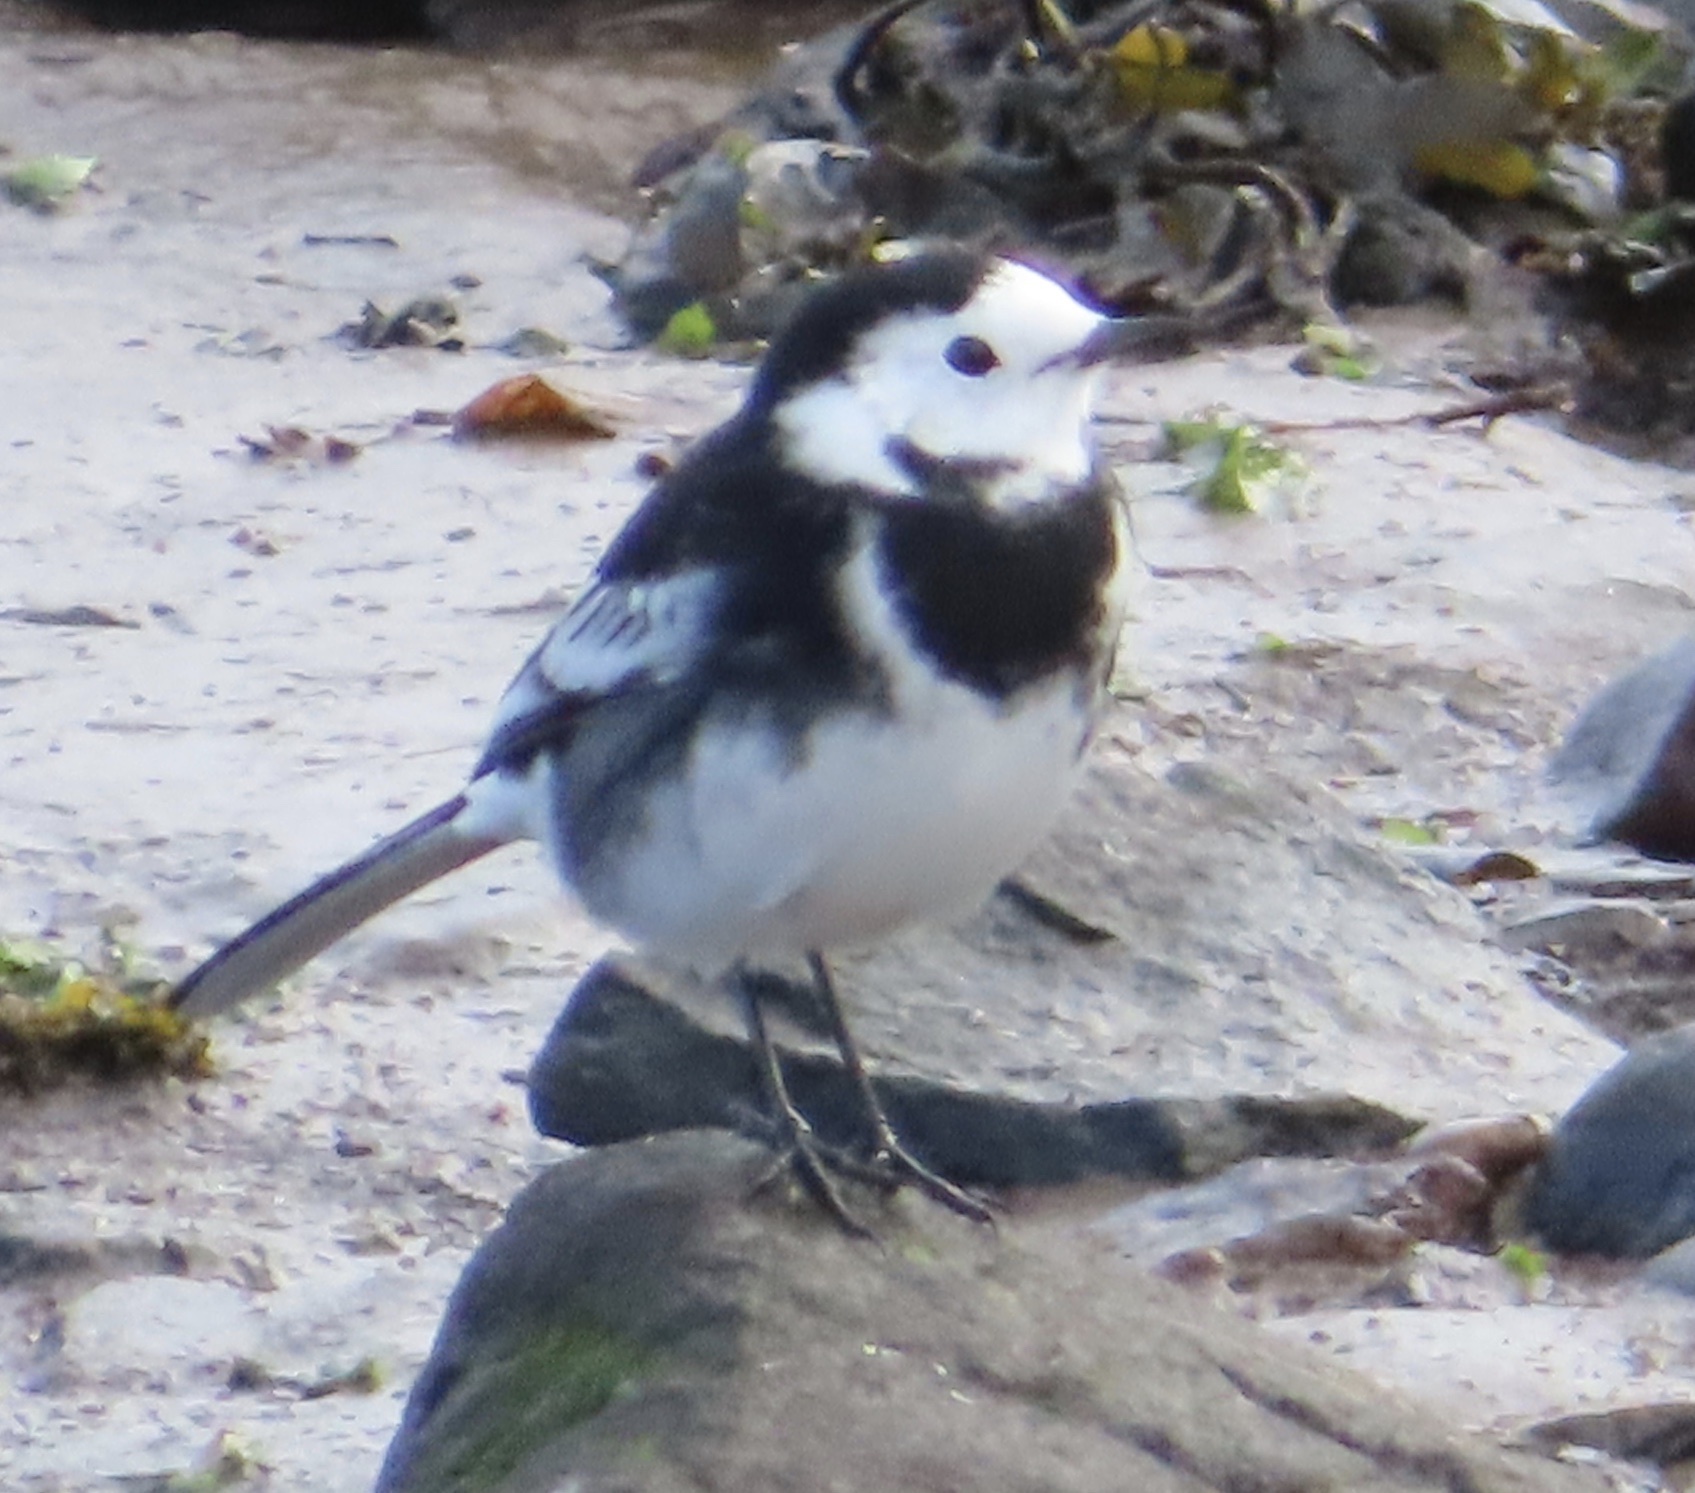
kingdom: Animalia
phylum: Chordata
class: Aves
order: Passeriformes
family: Motacillidae
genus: Motacilla
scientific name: Motacilla alba
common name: White wagtail
